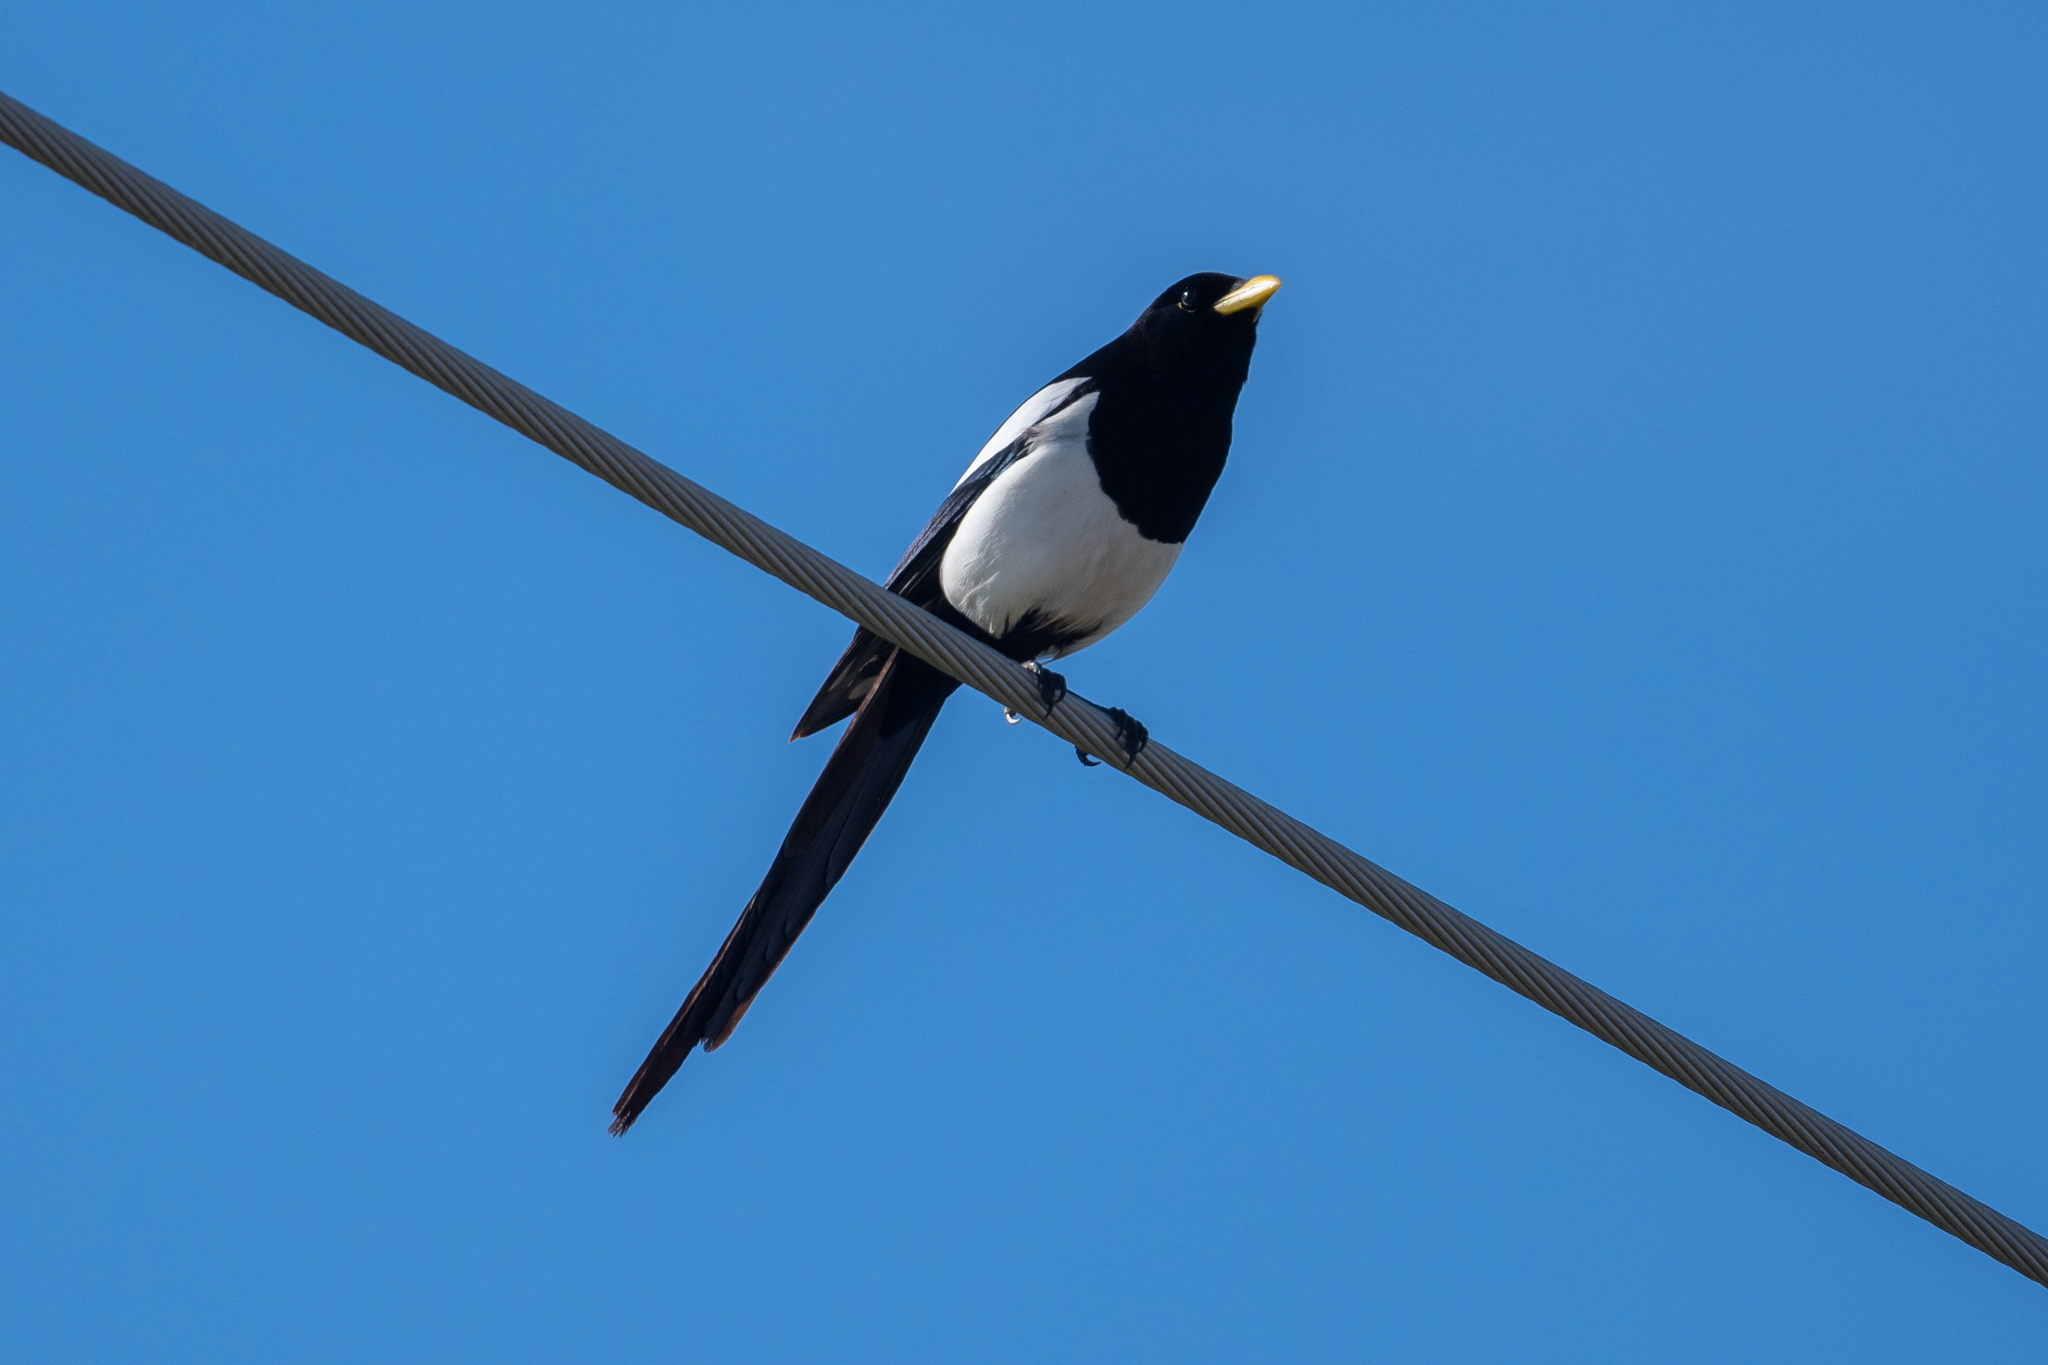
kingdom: Animalia
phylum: Chordata
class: Aves
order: Passeriformes
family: Corvidae
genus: Pica
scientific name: Pica nuttalli
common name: Yellow-billed magpie
